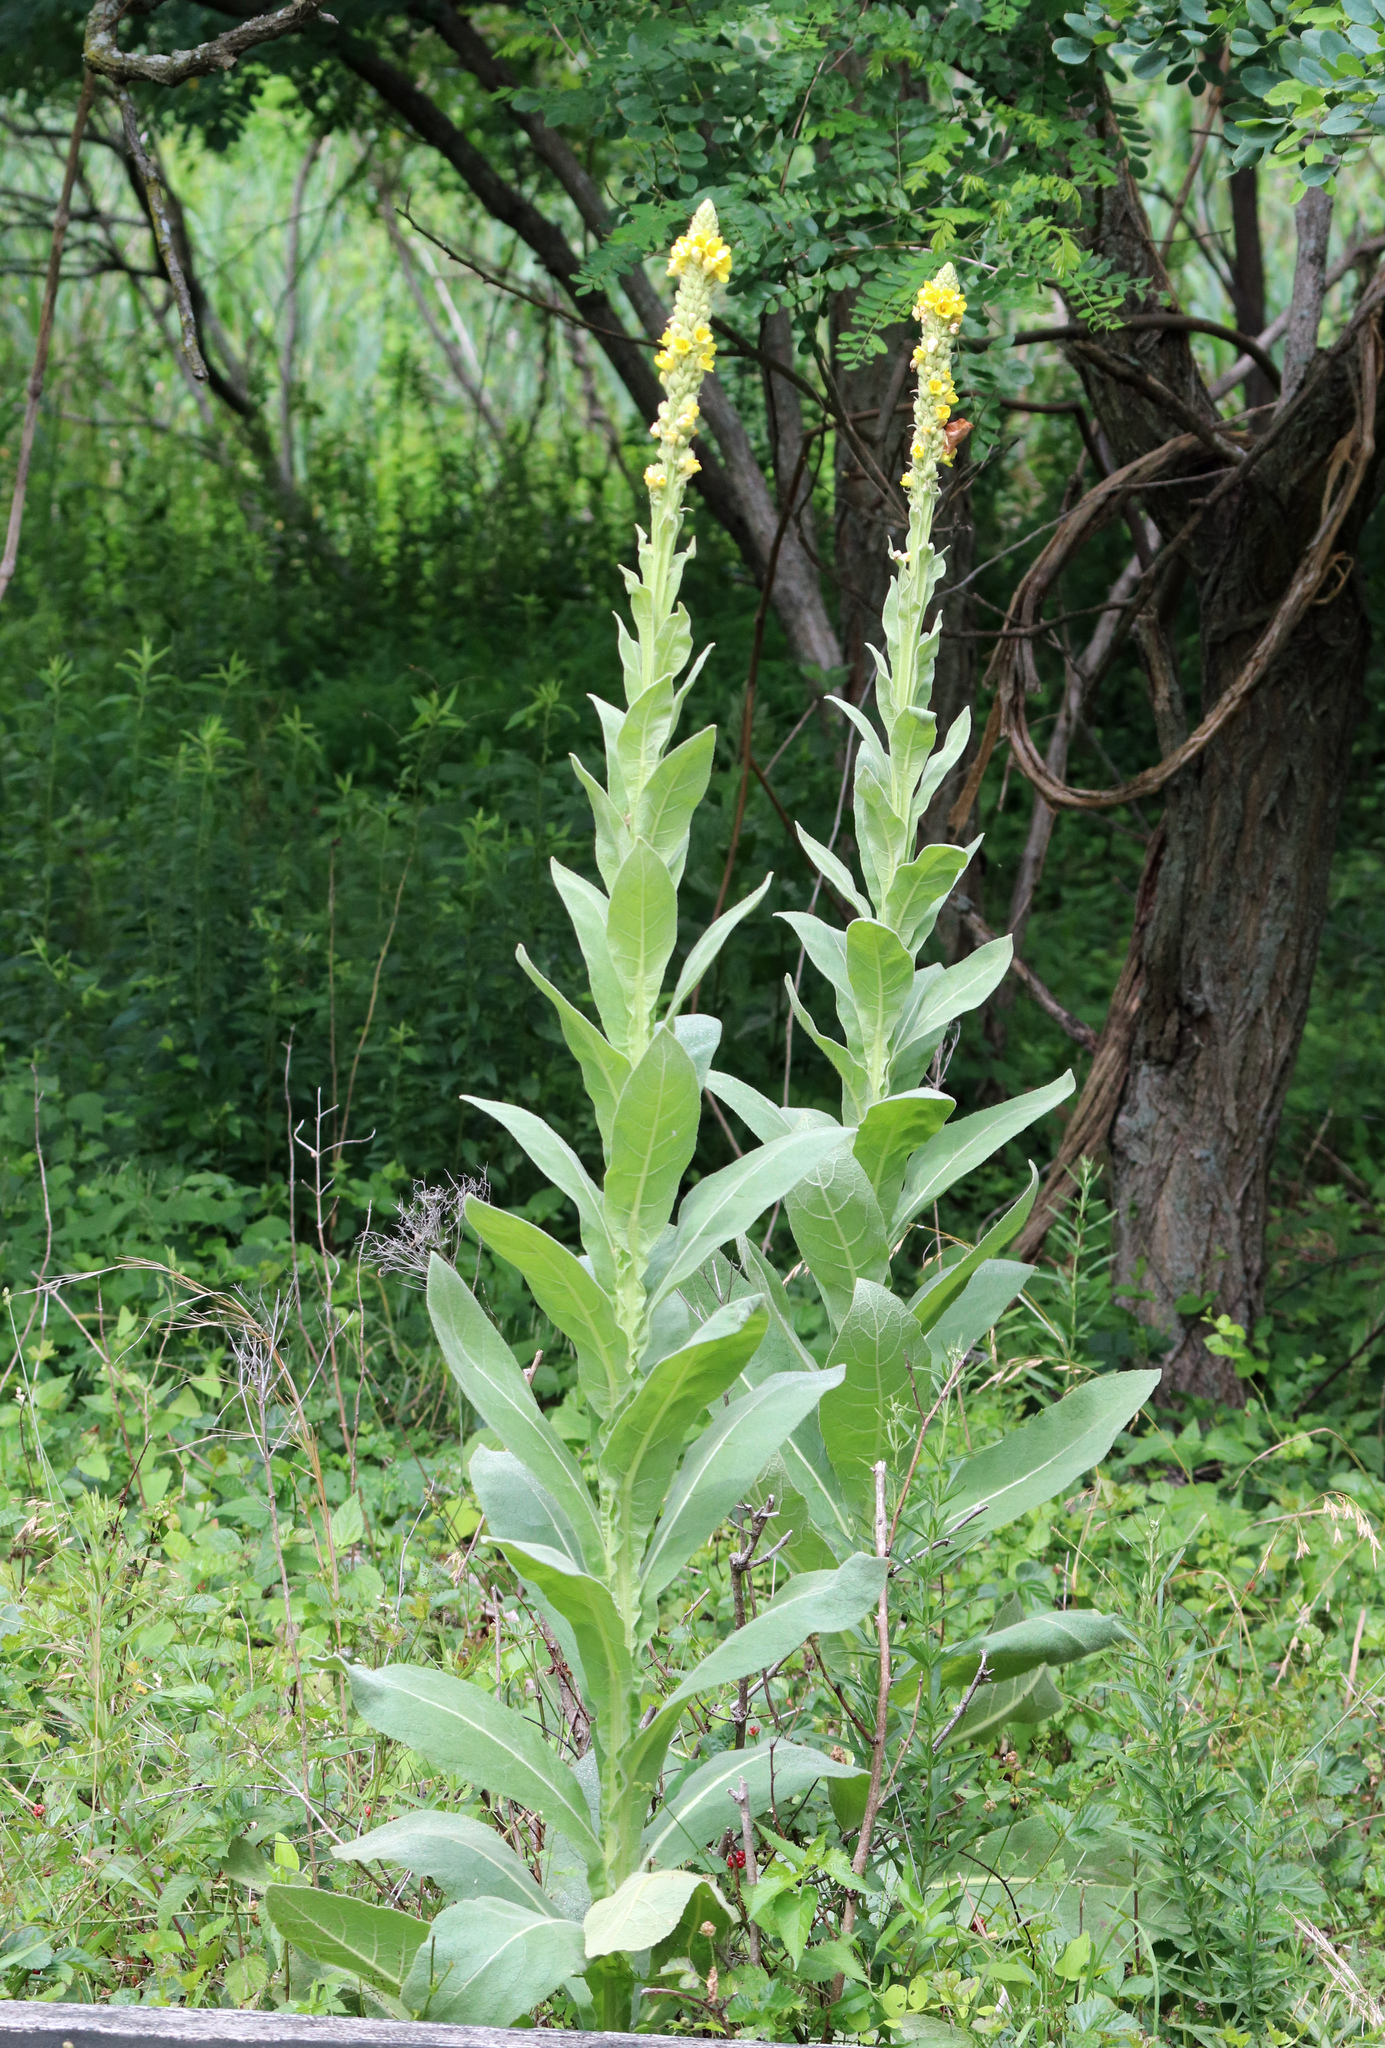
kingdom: Plantae
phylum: Tracheophyta
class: Magnoliopsida
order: Lamiales
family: Scrophulariaceae
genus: Verbascum
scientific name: Verbascum thapsus
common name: Common mullein
